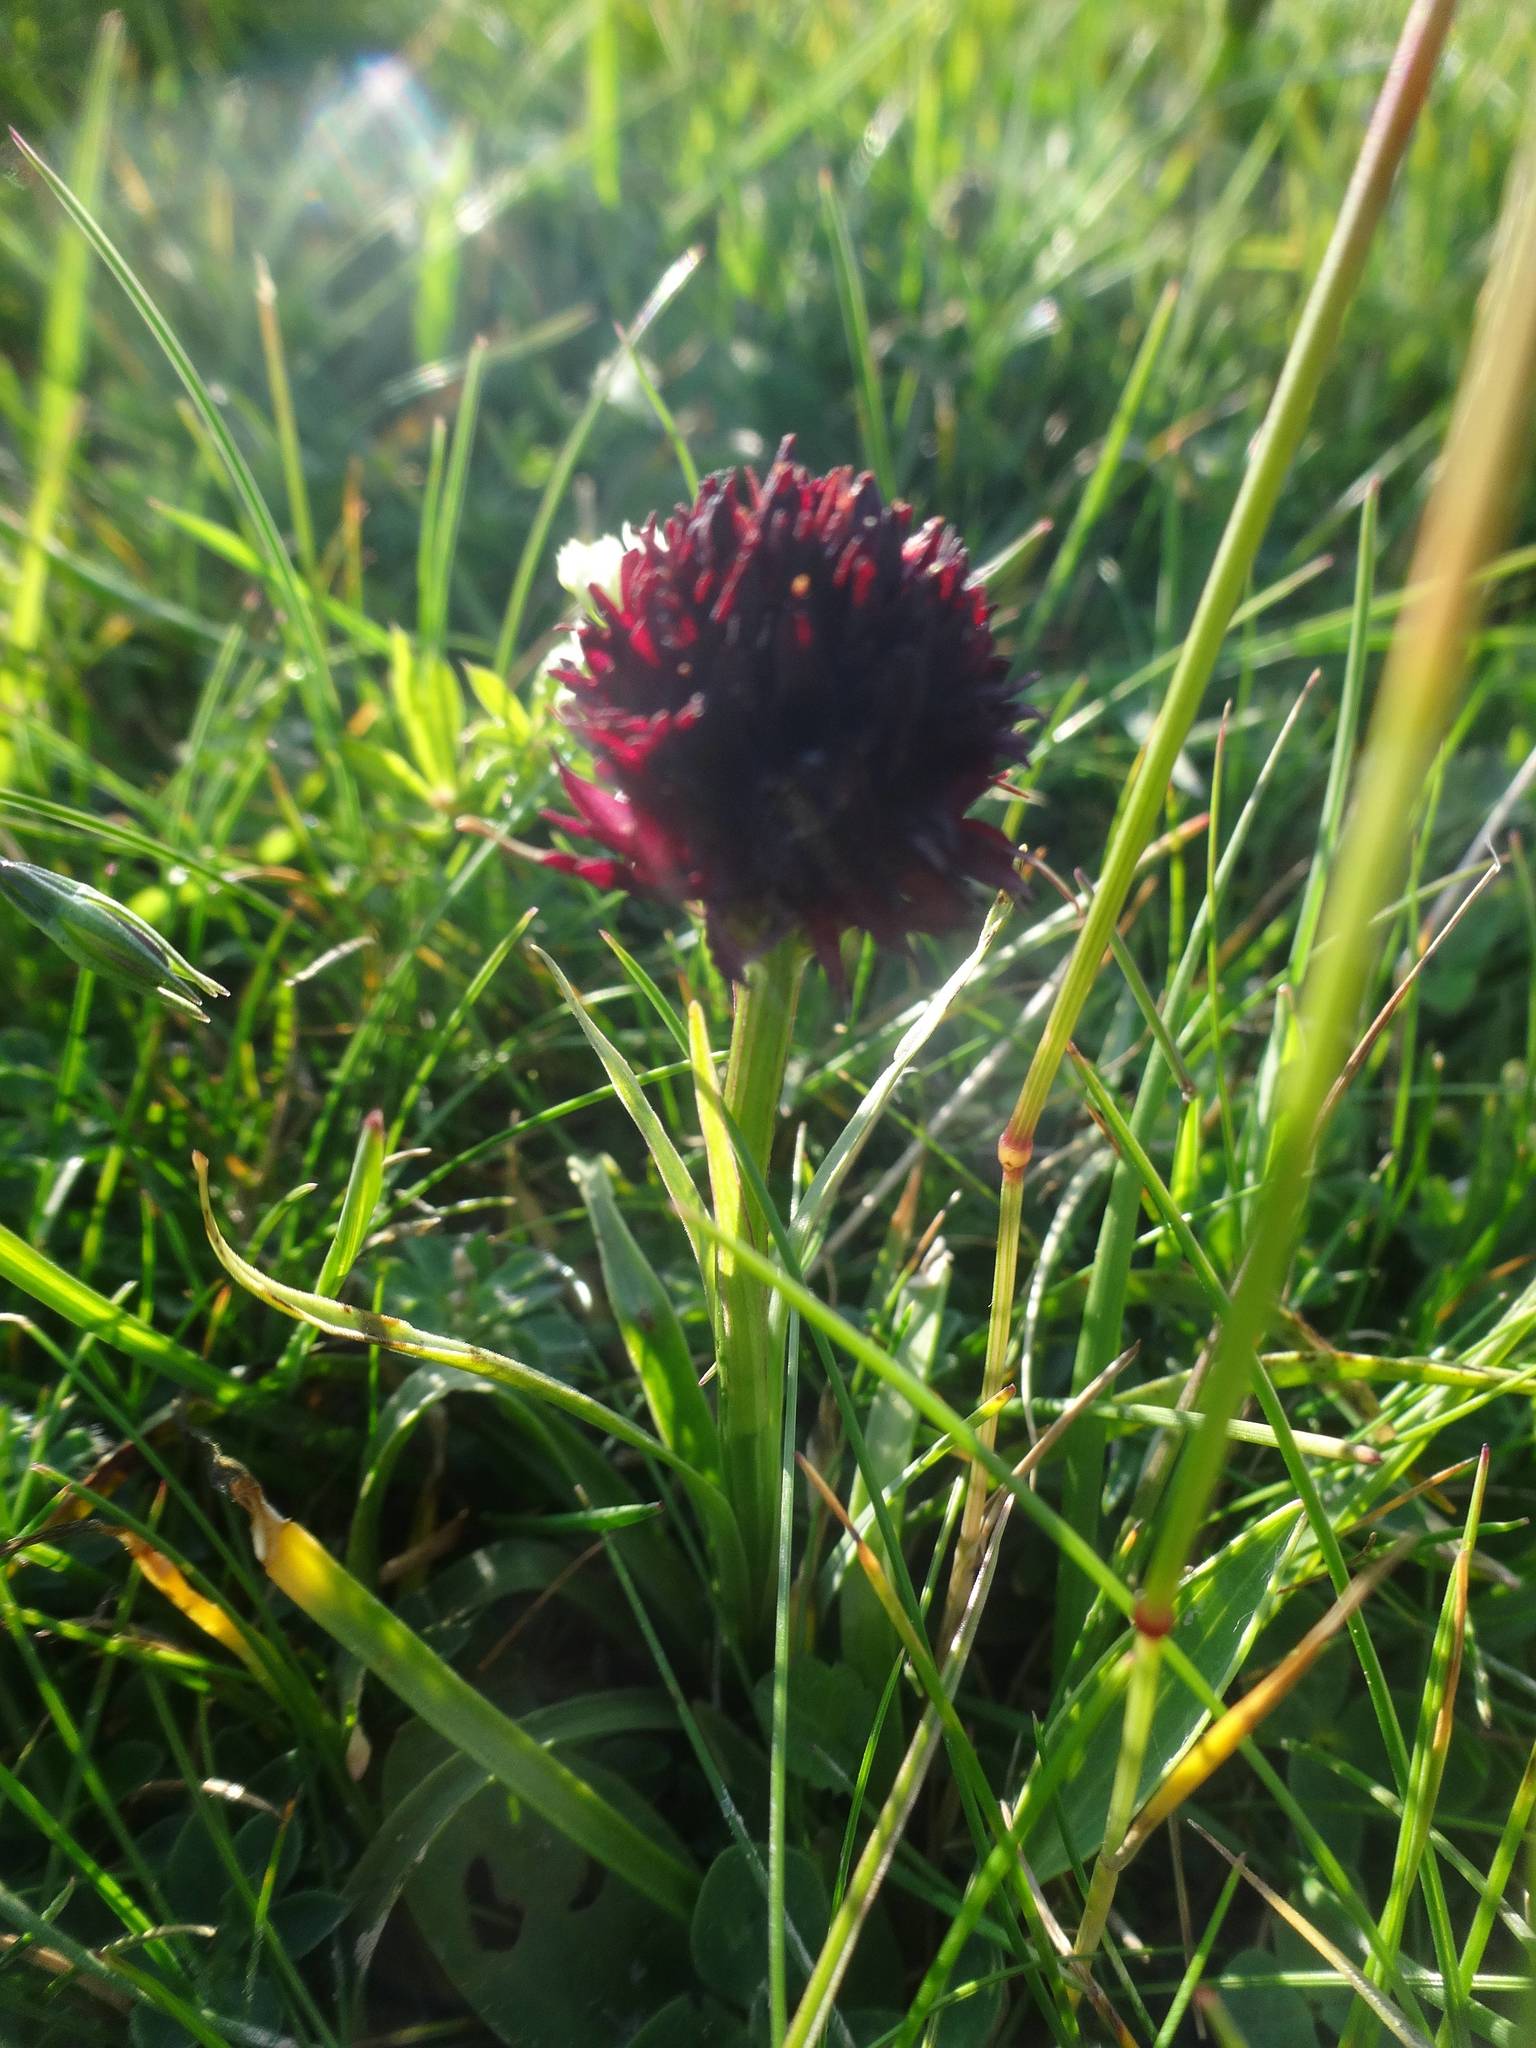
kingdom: Plantae
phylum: Tracheophyta
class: Liliopsida
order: Asparagales
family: Orchidaceae
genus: Gymnadenia
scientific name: Gymnadenia austriaca
